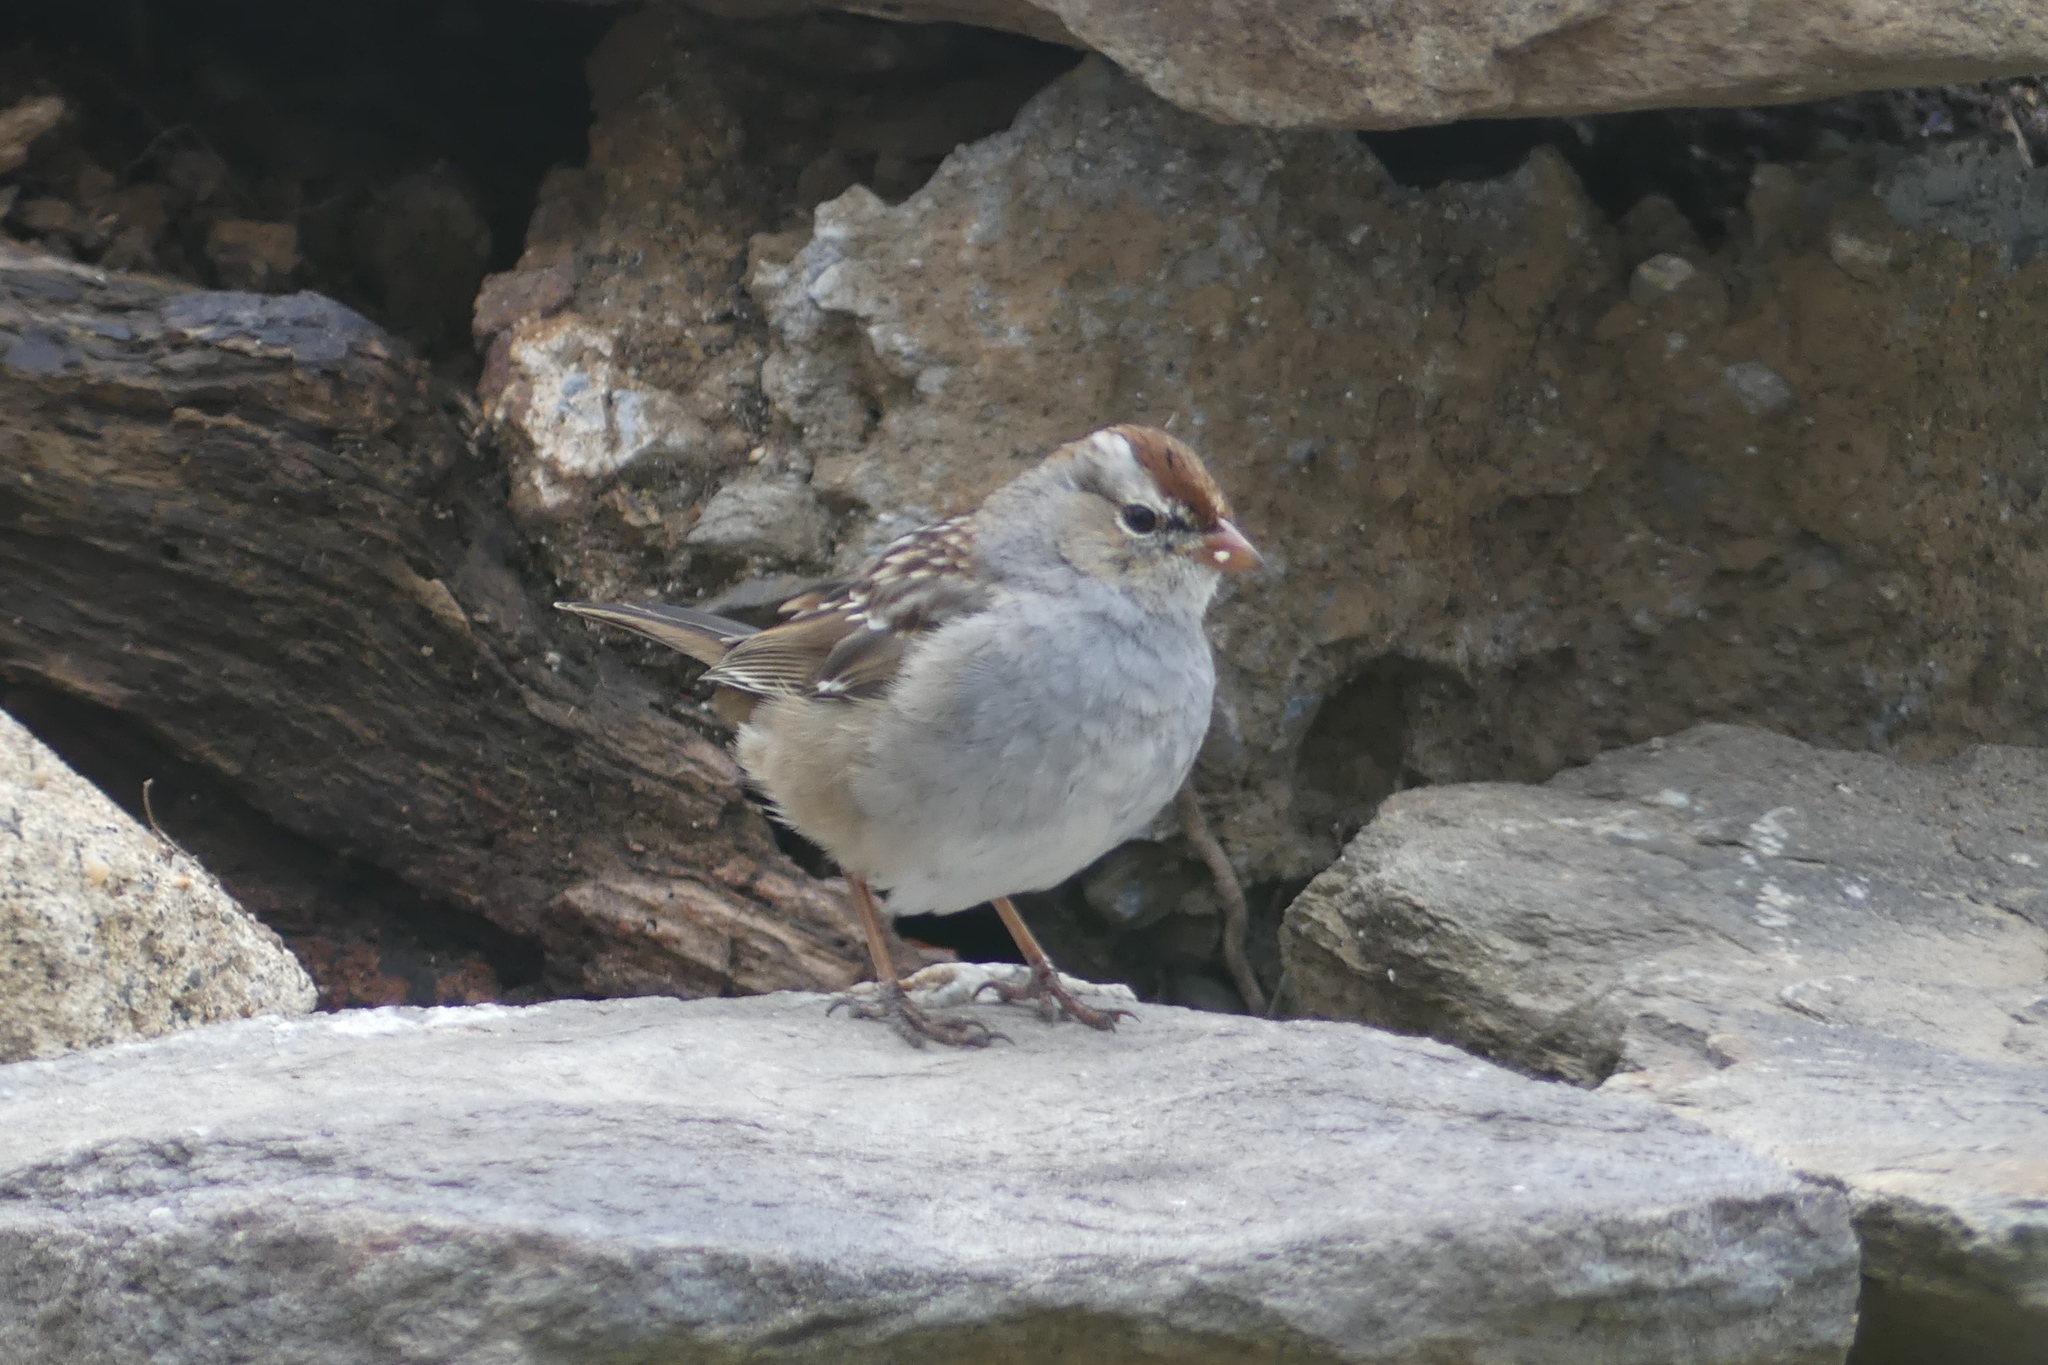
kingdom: Animalia
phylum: Chordata
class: Aves
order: Passeriformes
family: Passerellidae
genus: Zonotrichia
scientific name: Zonotrichia leucophrys
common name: White-crowned sparrow
